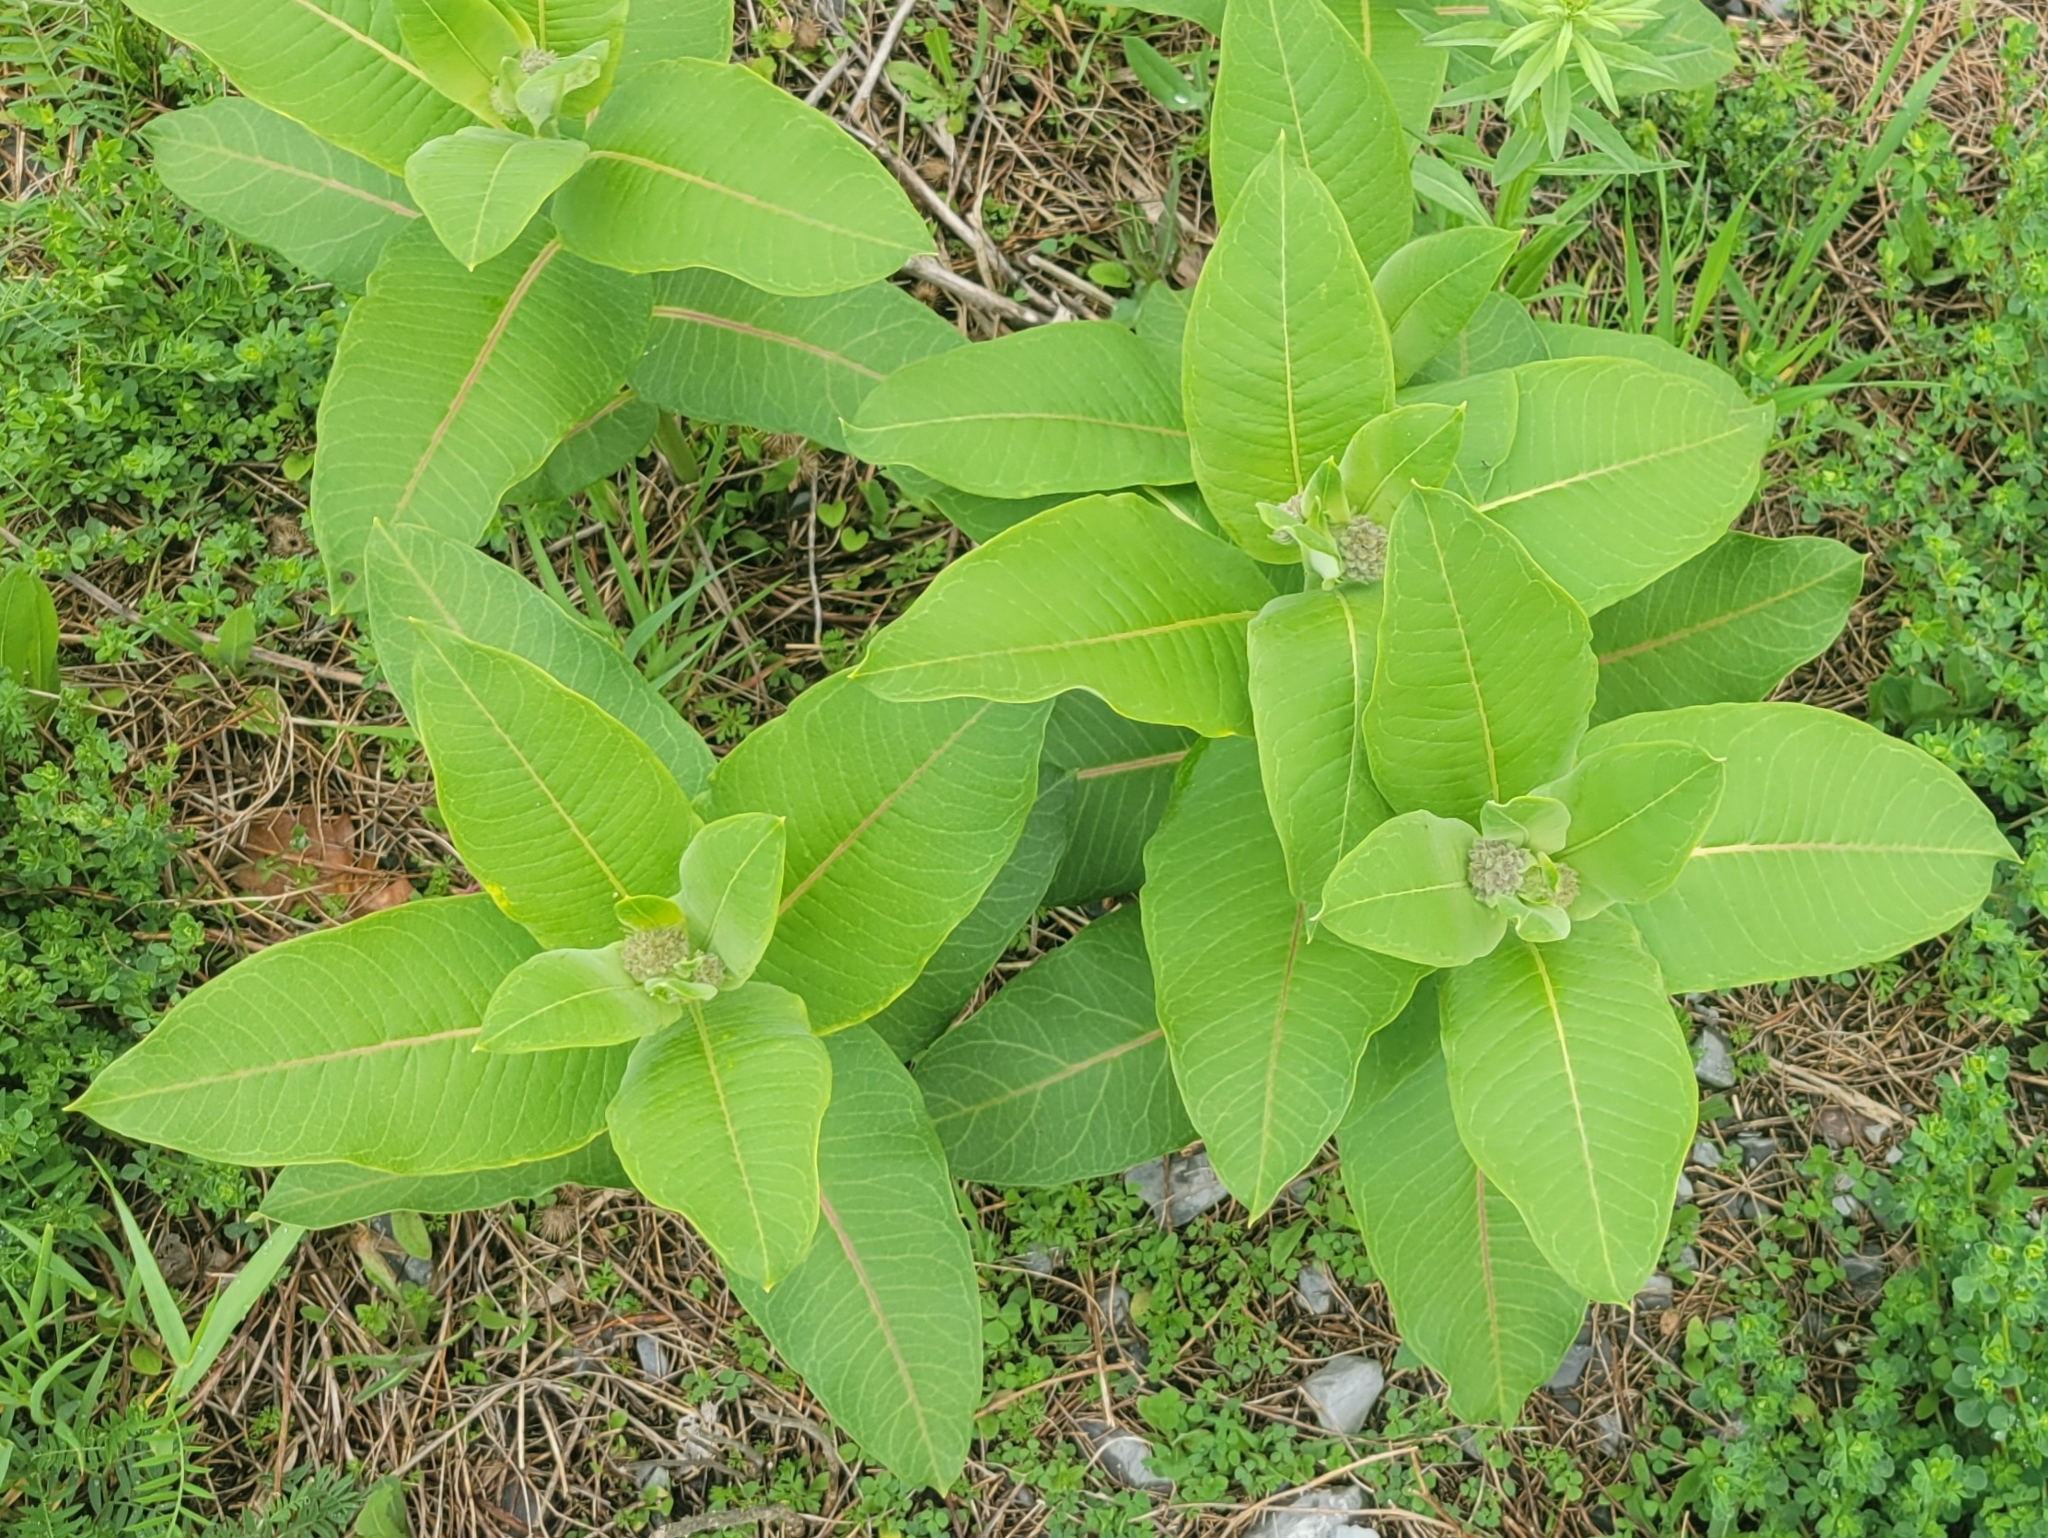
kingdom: Plantae
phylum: Tracheophyta
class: Magnoliopsida
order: Gentianales
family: Apocynaceae
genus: Asclepias
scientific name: Asclepias syriaca
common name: Common milkweed
